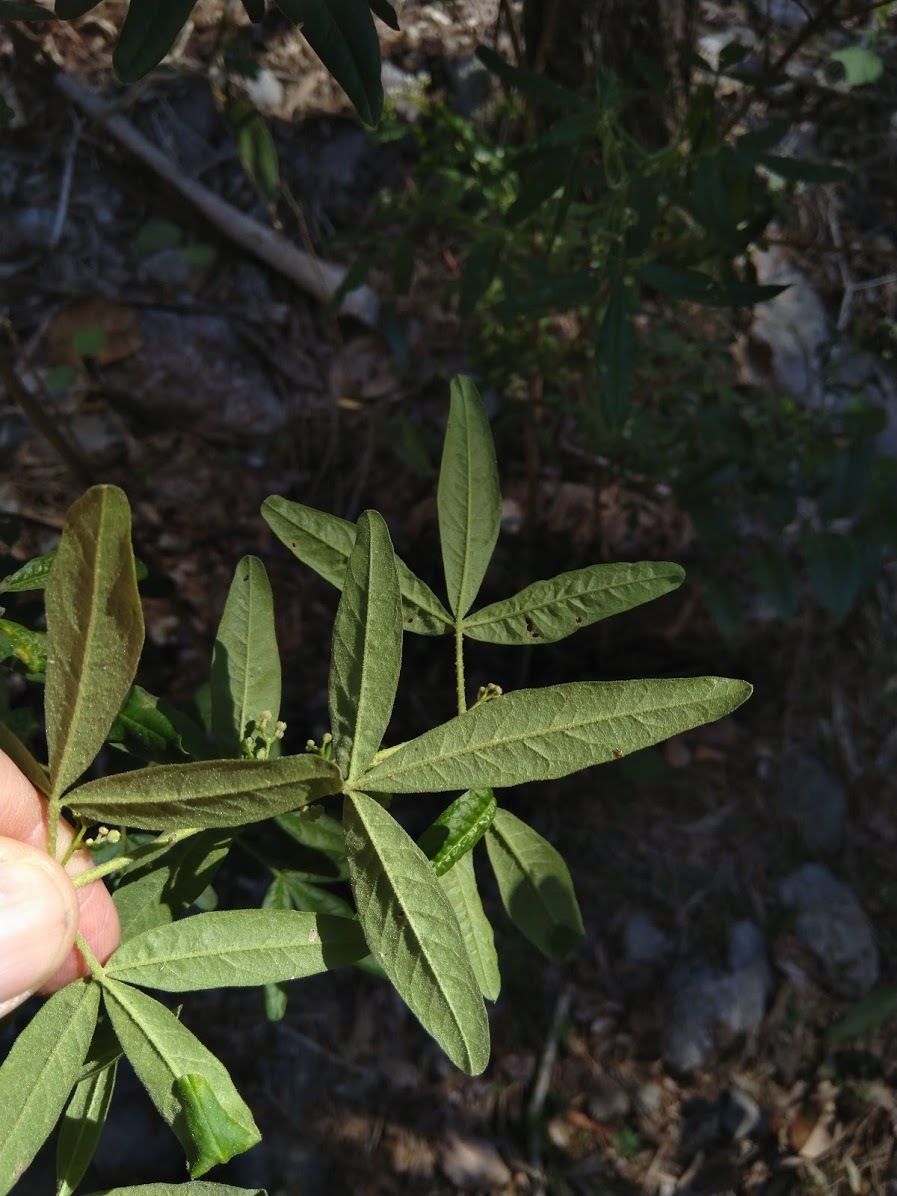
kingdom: Plantae
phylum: Tracheophyta
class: Magnoliopsida
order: Sapindales
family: Rutaceae
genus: Zieria
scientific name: Zieria furfuracea
